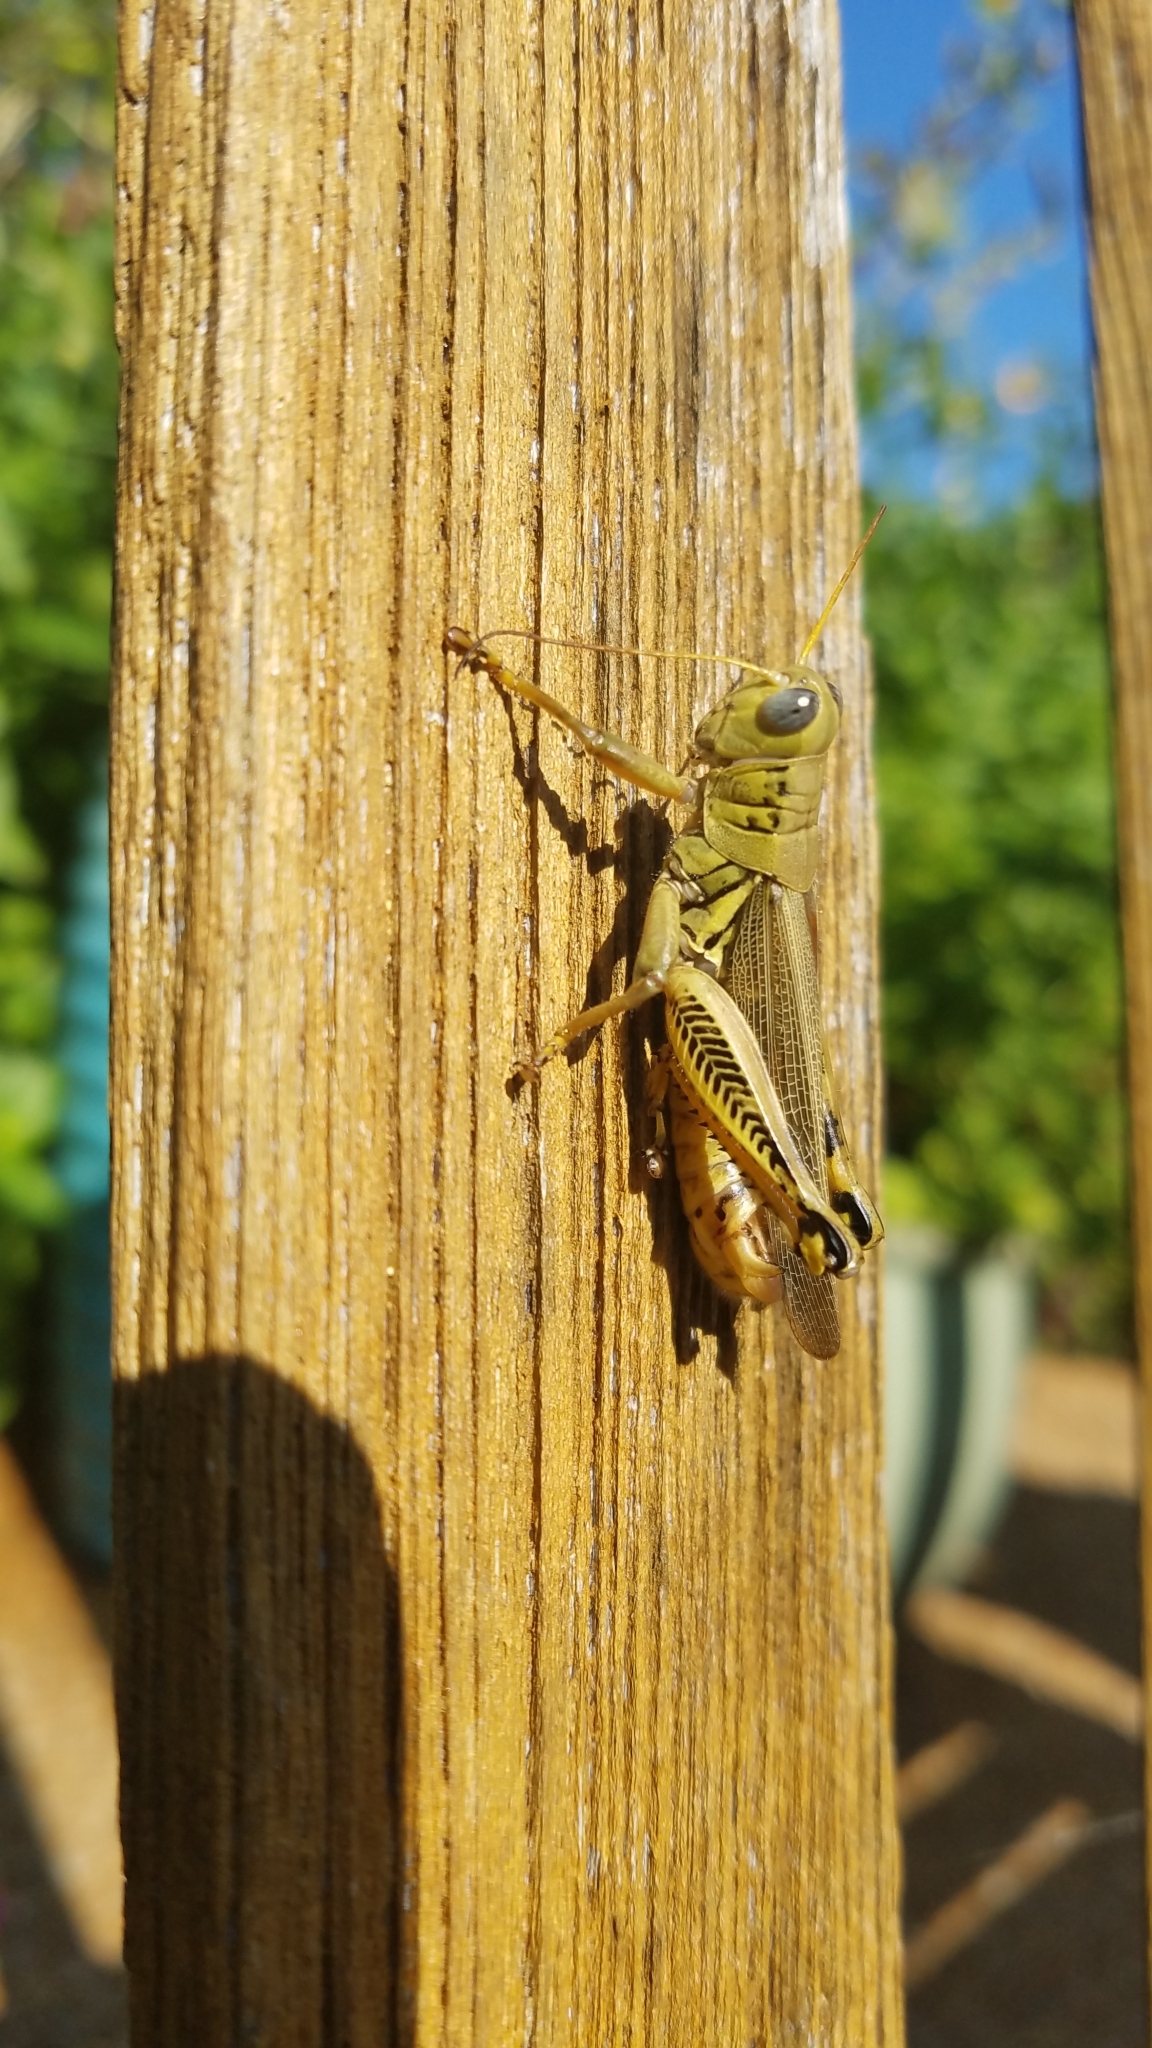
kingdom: Animalia
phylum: Arthropoda
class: Insecta
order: Orthoptera
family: Acrididae
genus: Melanoplus
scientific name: Melanoplus differentialis
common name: Differential grasshopper
